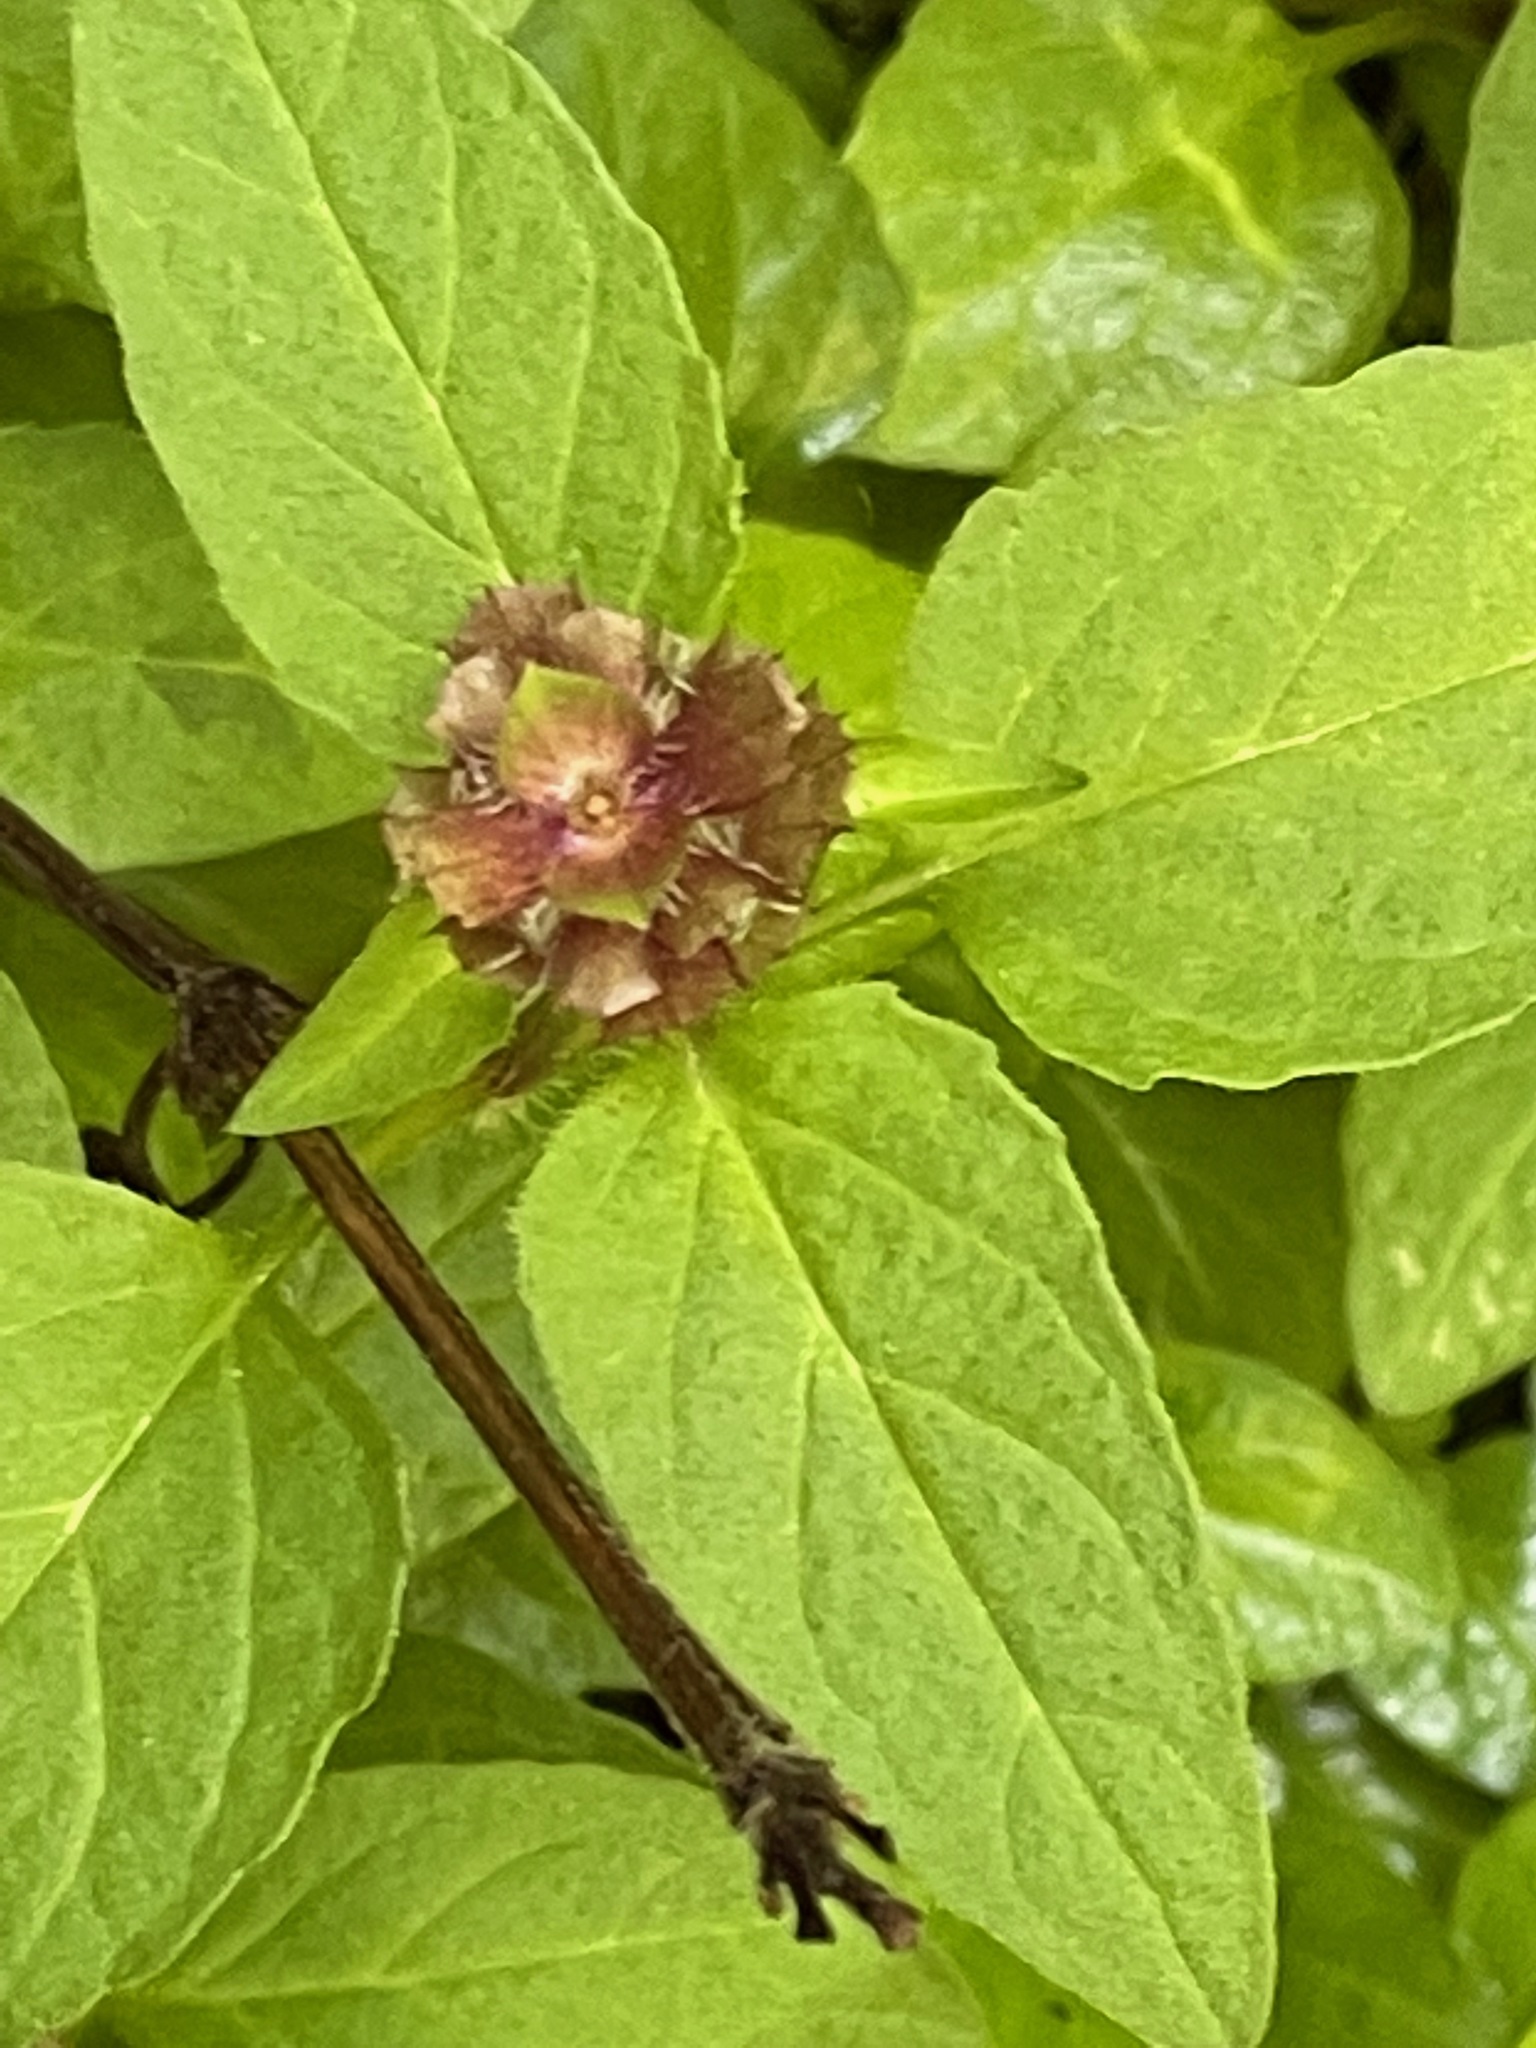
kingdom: Plantae
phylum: Tracheophyta
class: Magnoliopsida
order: Lamiales
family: Lamiaceae
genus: Prunella
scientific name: Prunella vulgaris
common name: Heal-all
